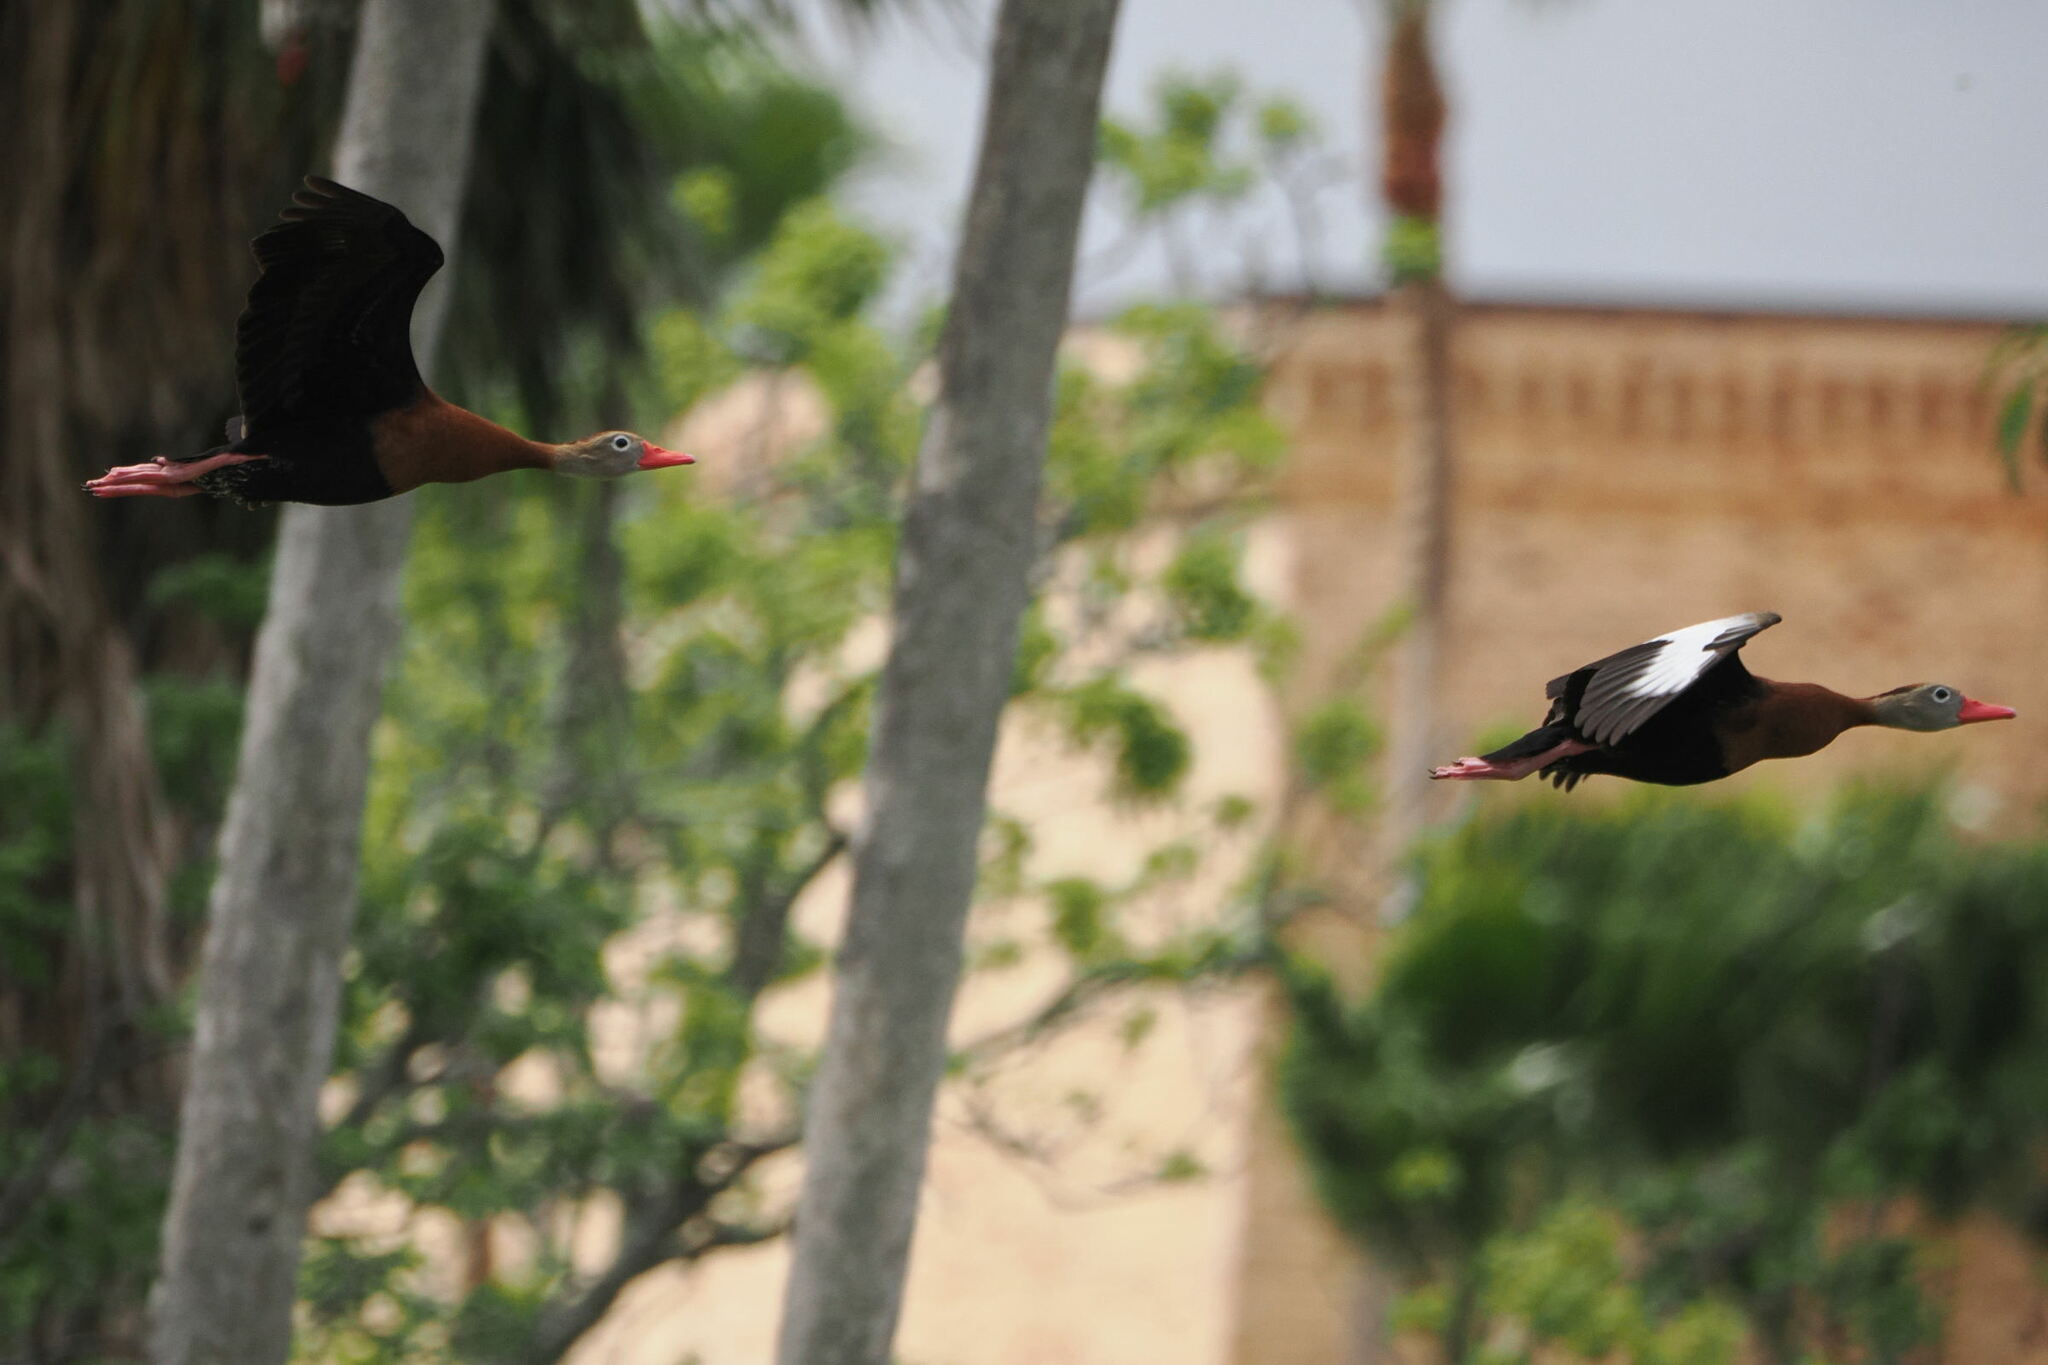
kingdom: Animalia
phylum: Chordata
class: Aves
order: Anseriformes
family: Anatidae
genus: Dendrocygna
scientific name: Dendrocygna autumnalis
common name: Black-bellied whistling duck
